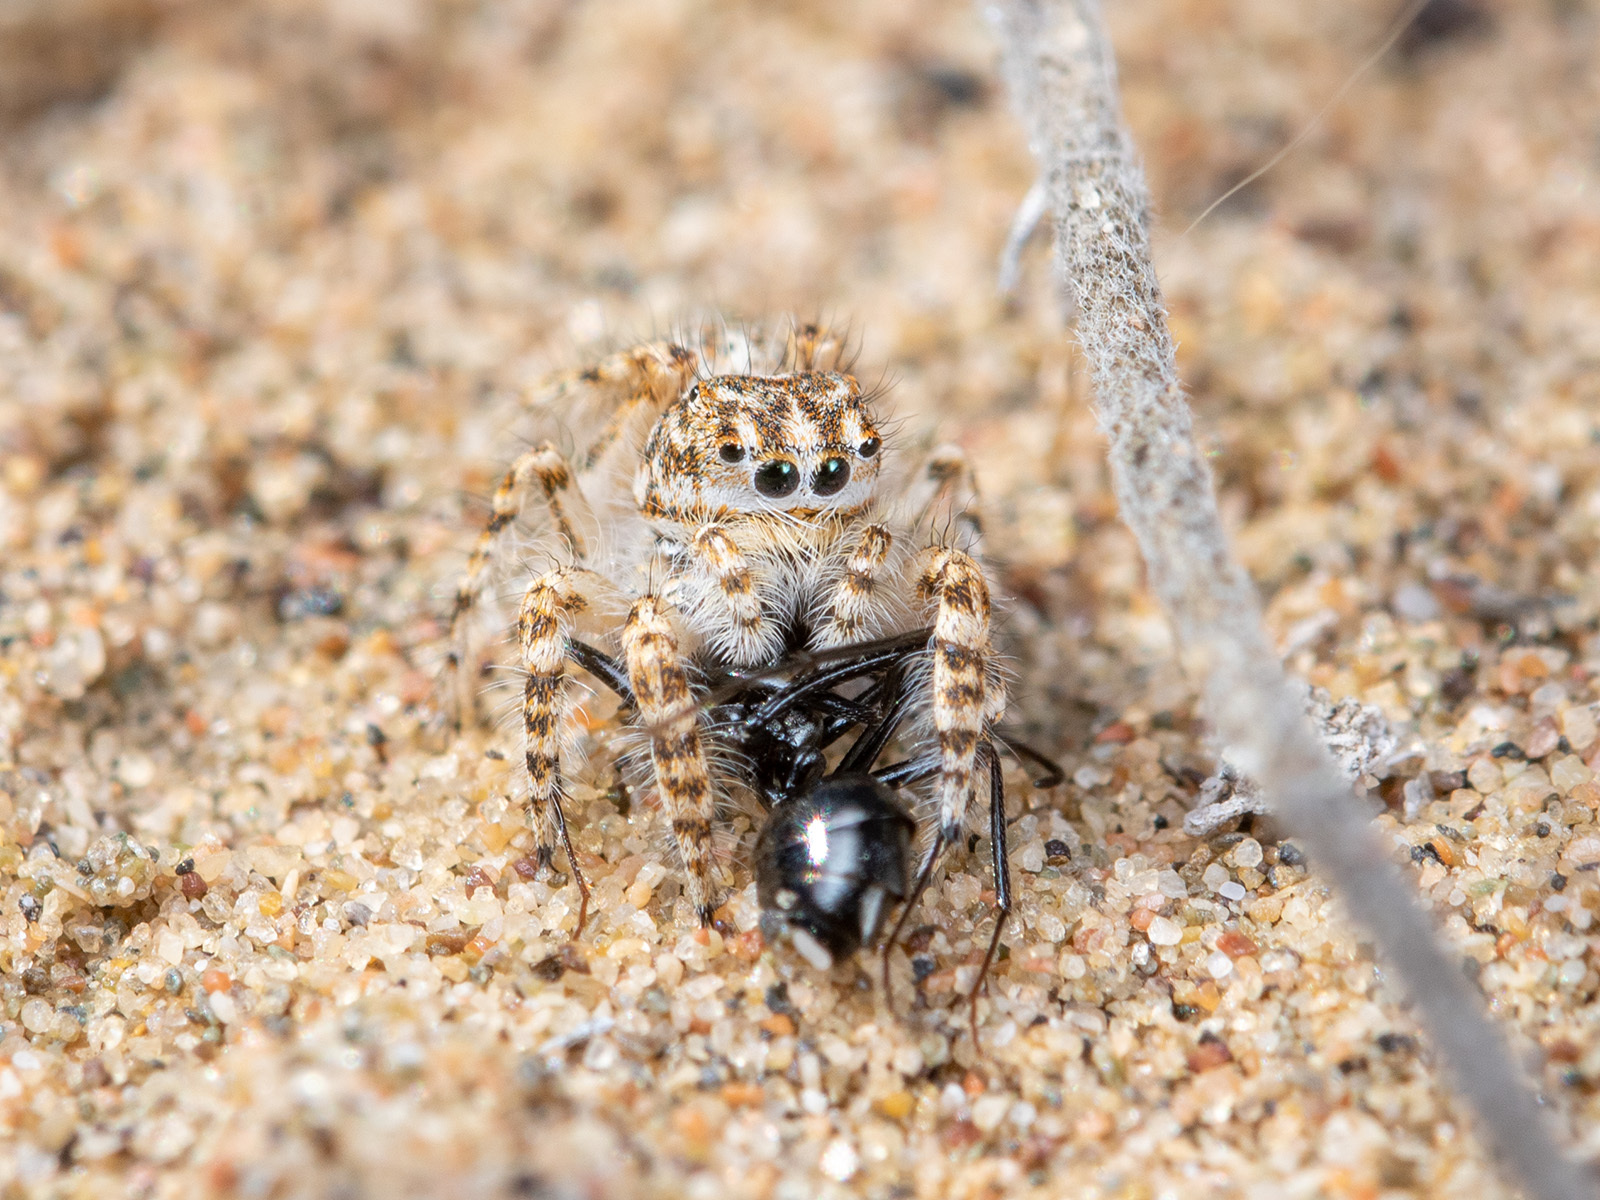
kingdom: Animalia
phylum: Arthropoda
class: Arachnida
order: Araneae
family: Salticidae
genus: Yllenus
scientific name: Yllenus turkestanicus
